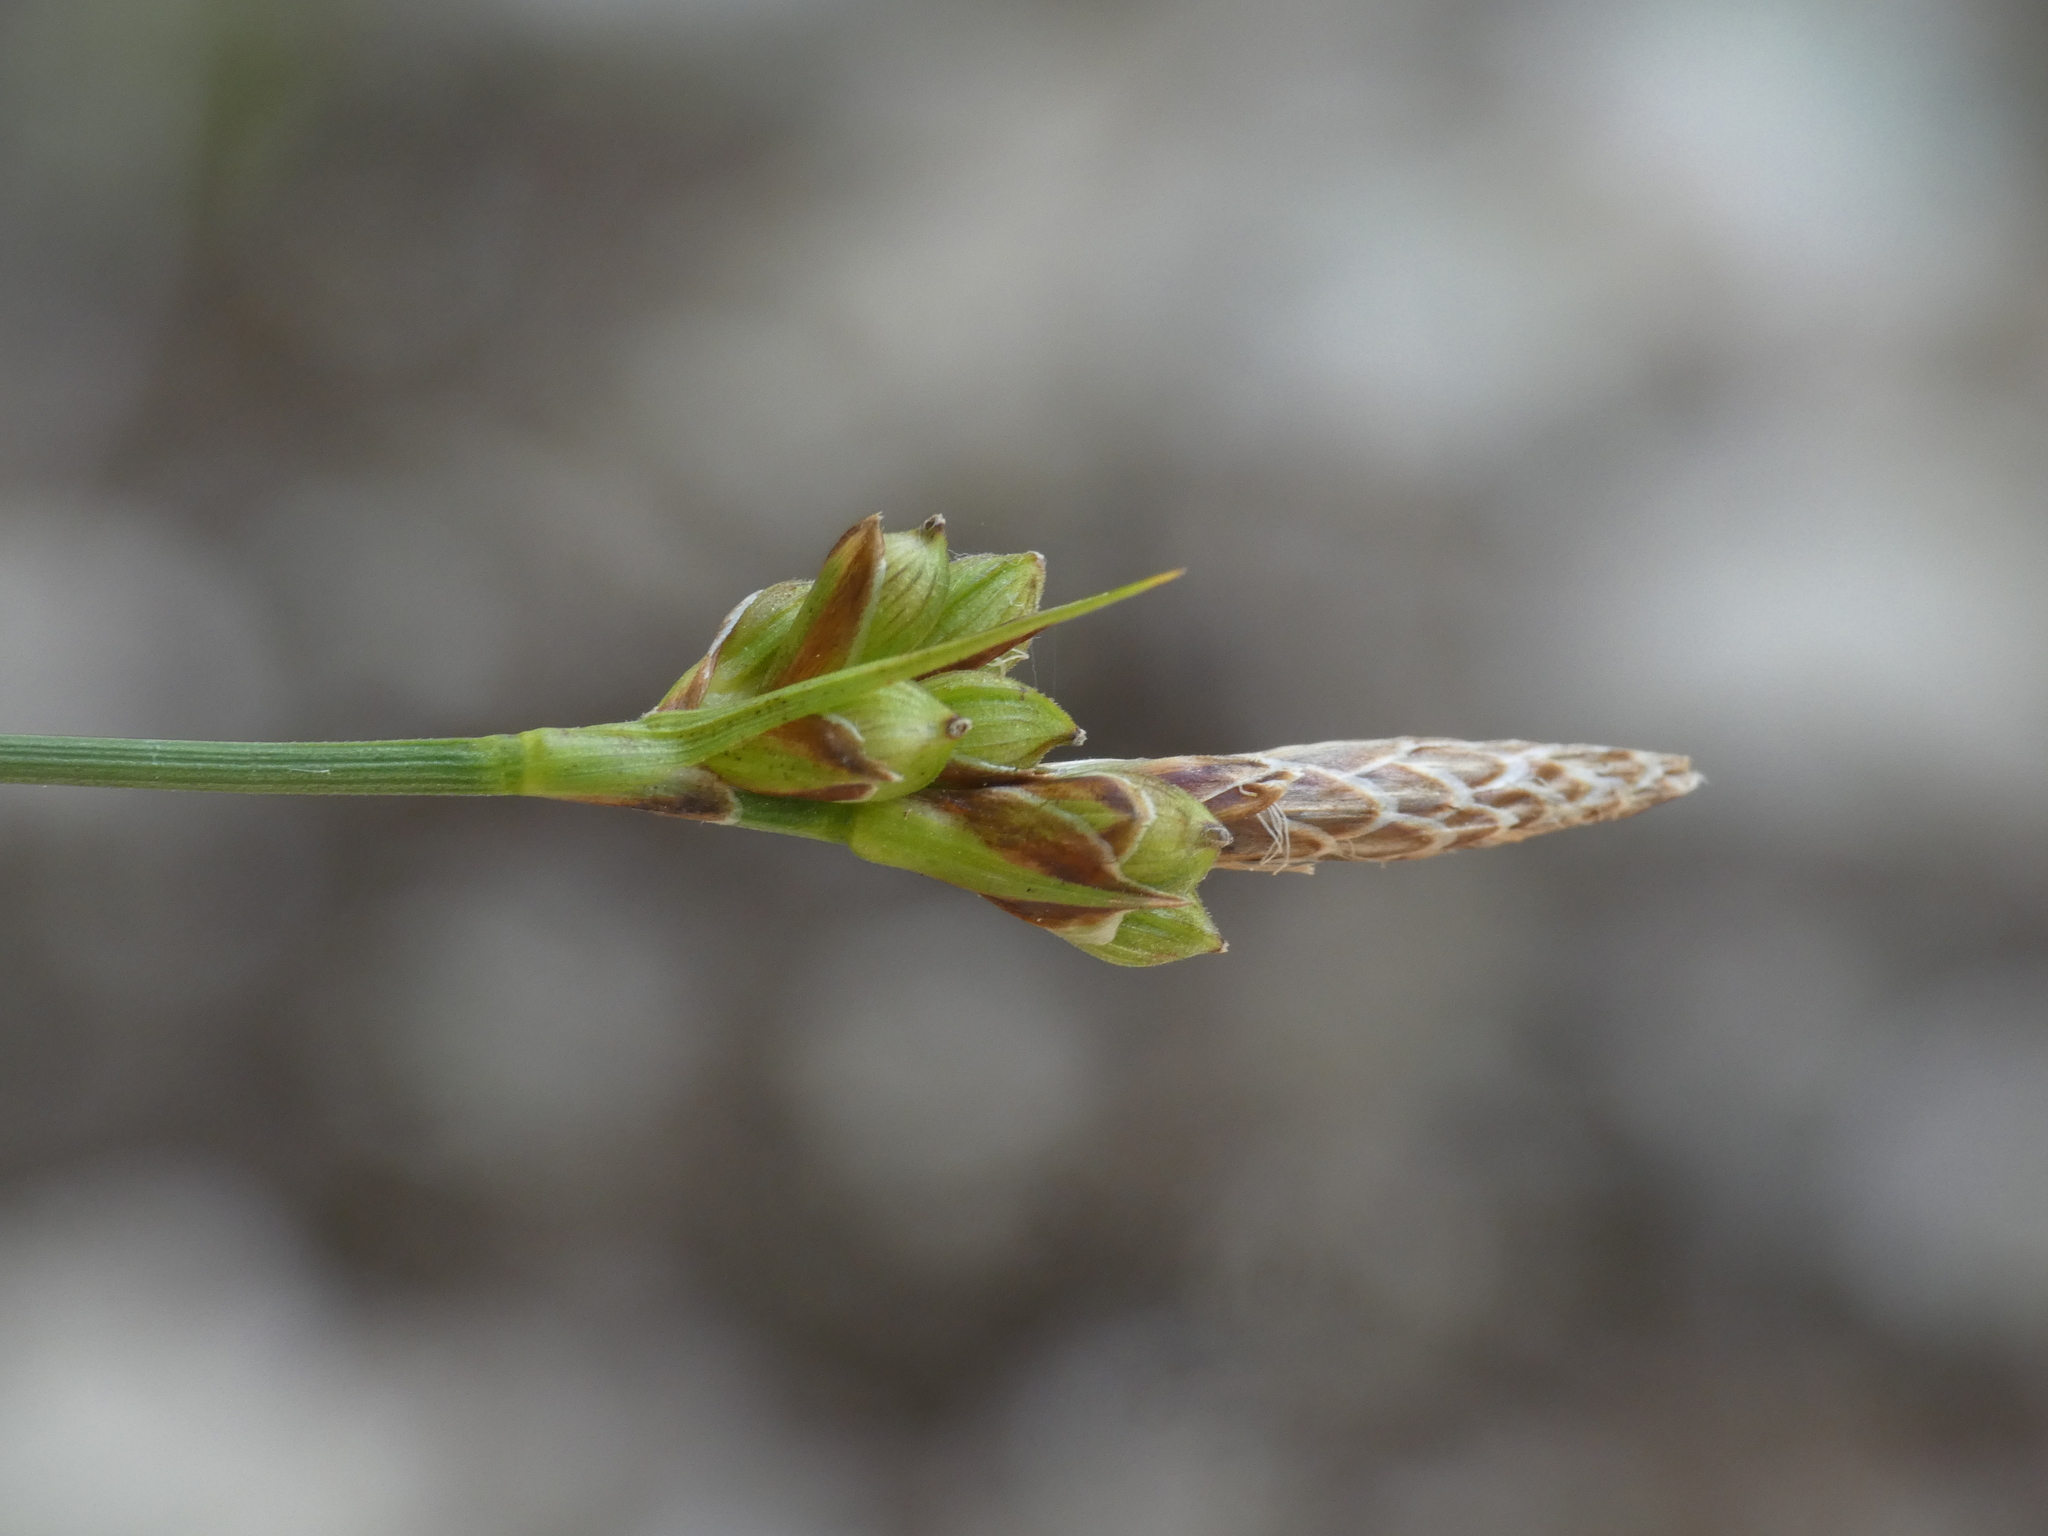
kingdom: Plantae
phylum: Tracheophyta
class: Liliopsida
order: Poales
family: Cyperaceae
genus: Carex
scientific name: Carex halleriana
